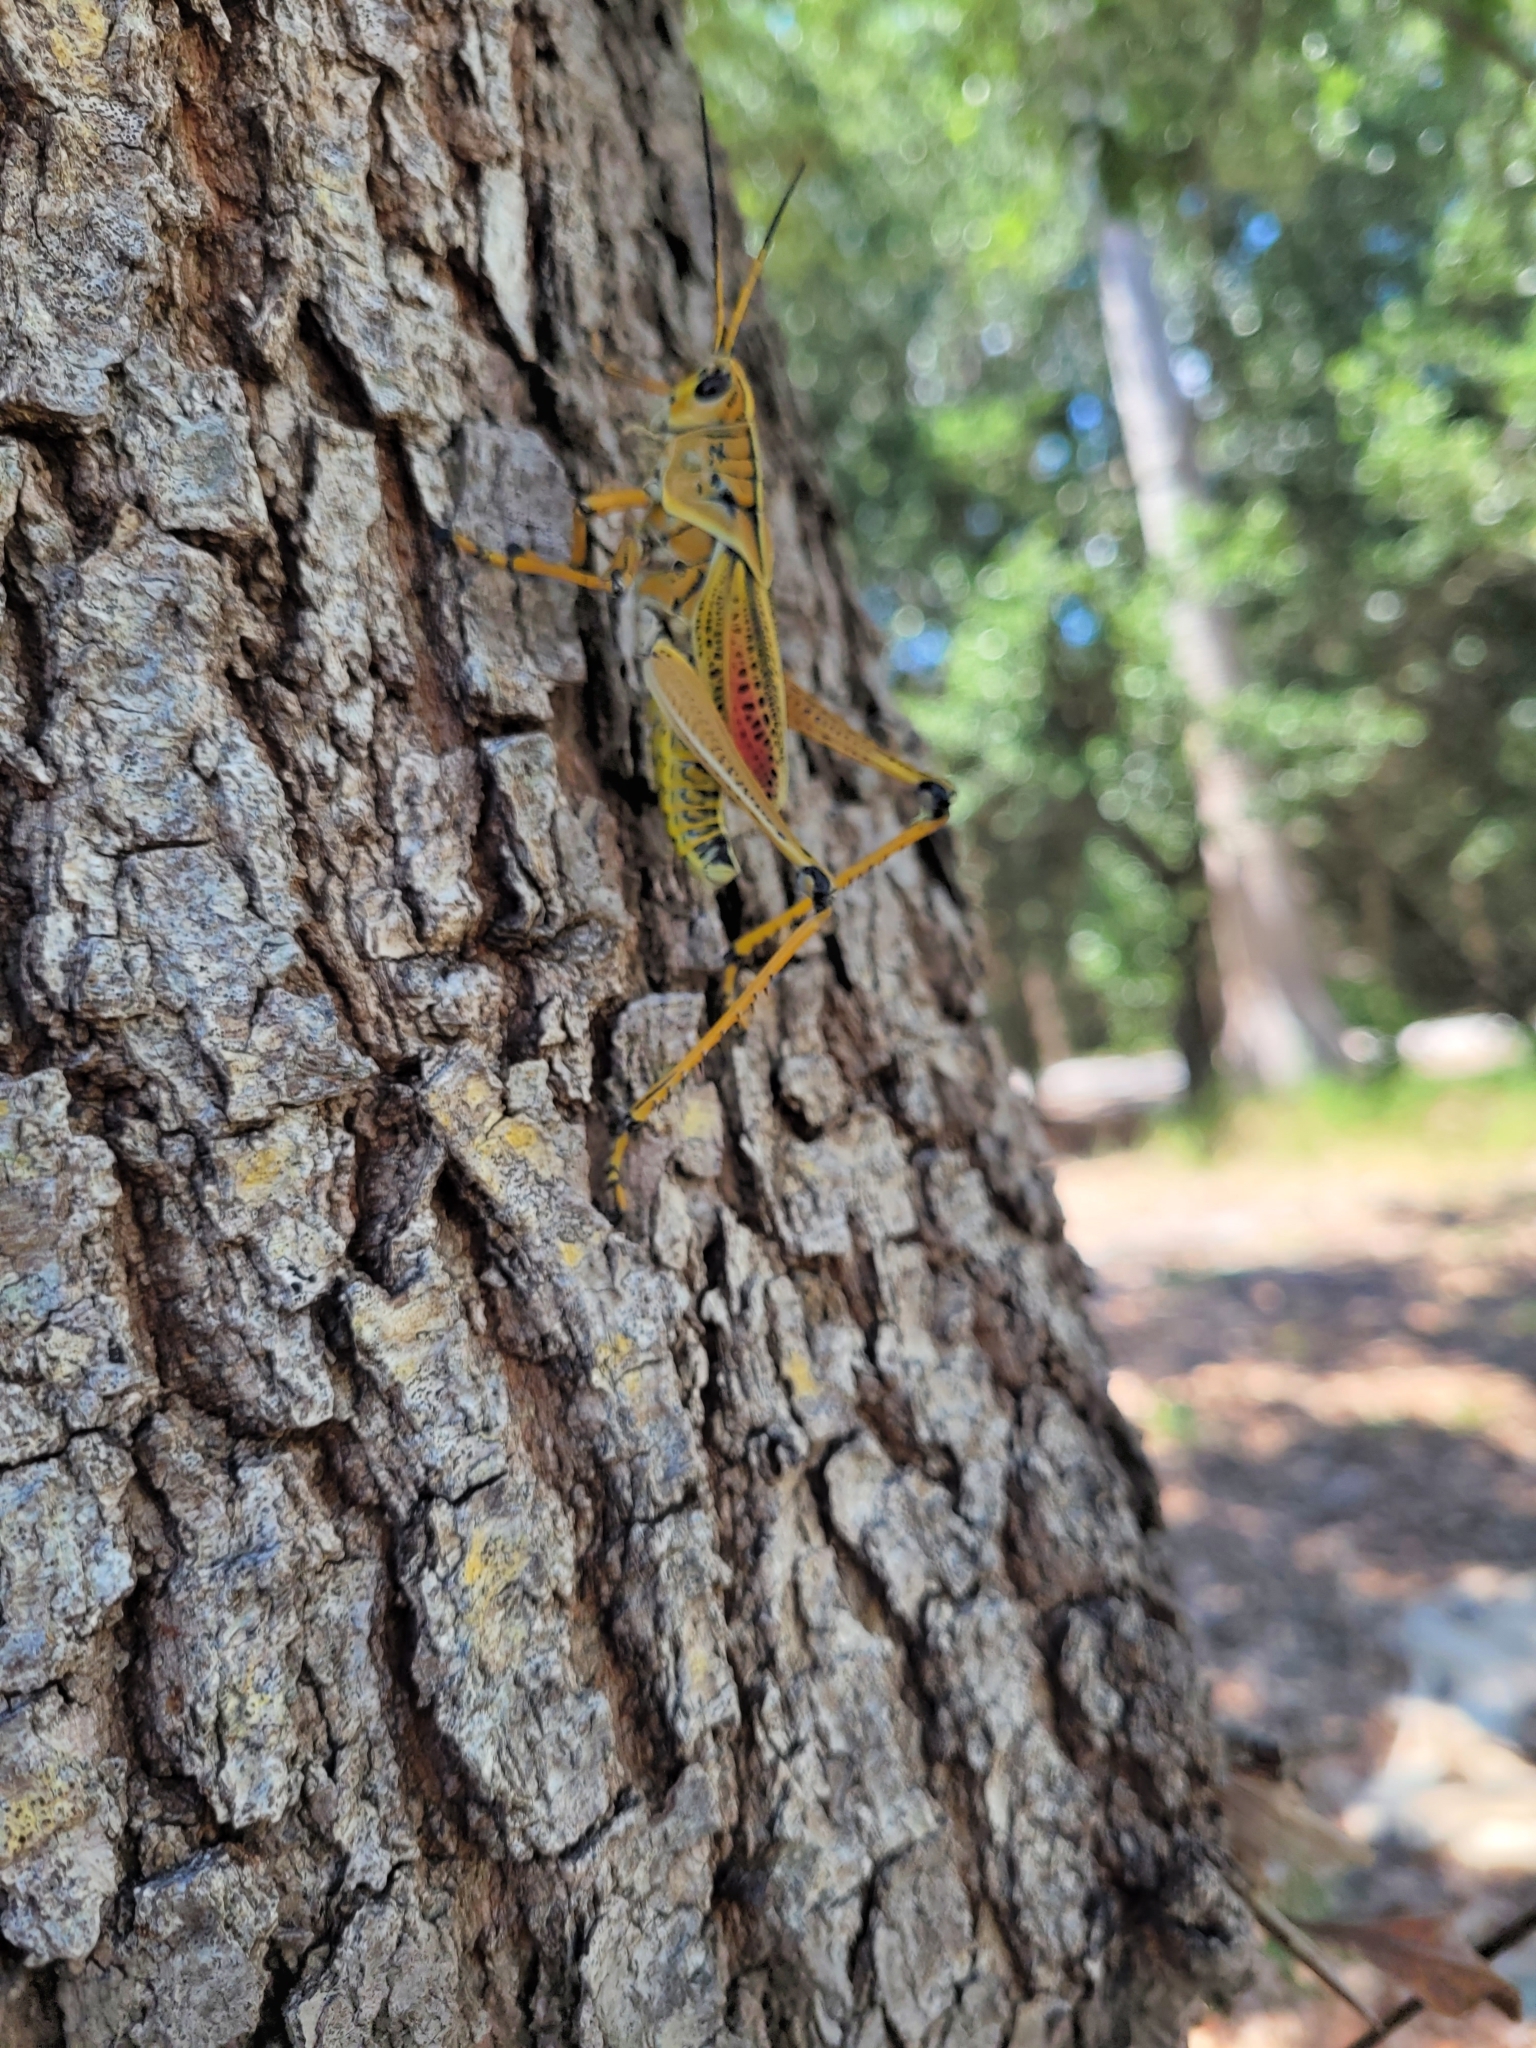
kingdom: Animalia
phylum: Arthropoda
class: Insecta
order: Orthoptera
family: Romaleidae
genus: Romalea
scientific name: Romalea microptera
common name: Eastern lubber grasshopper
